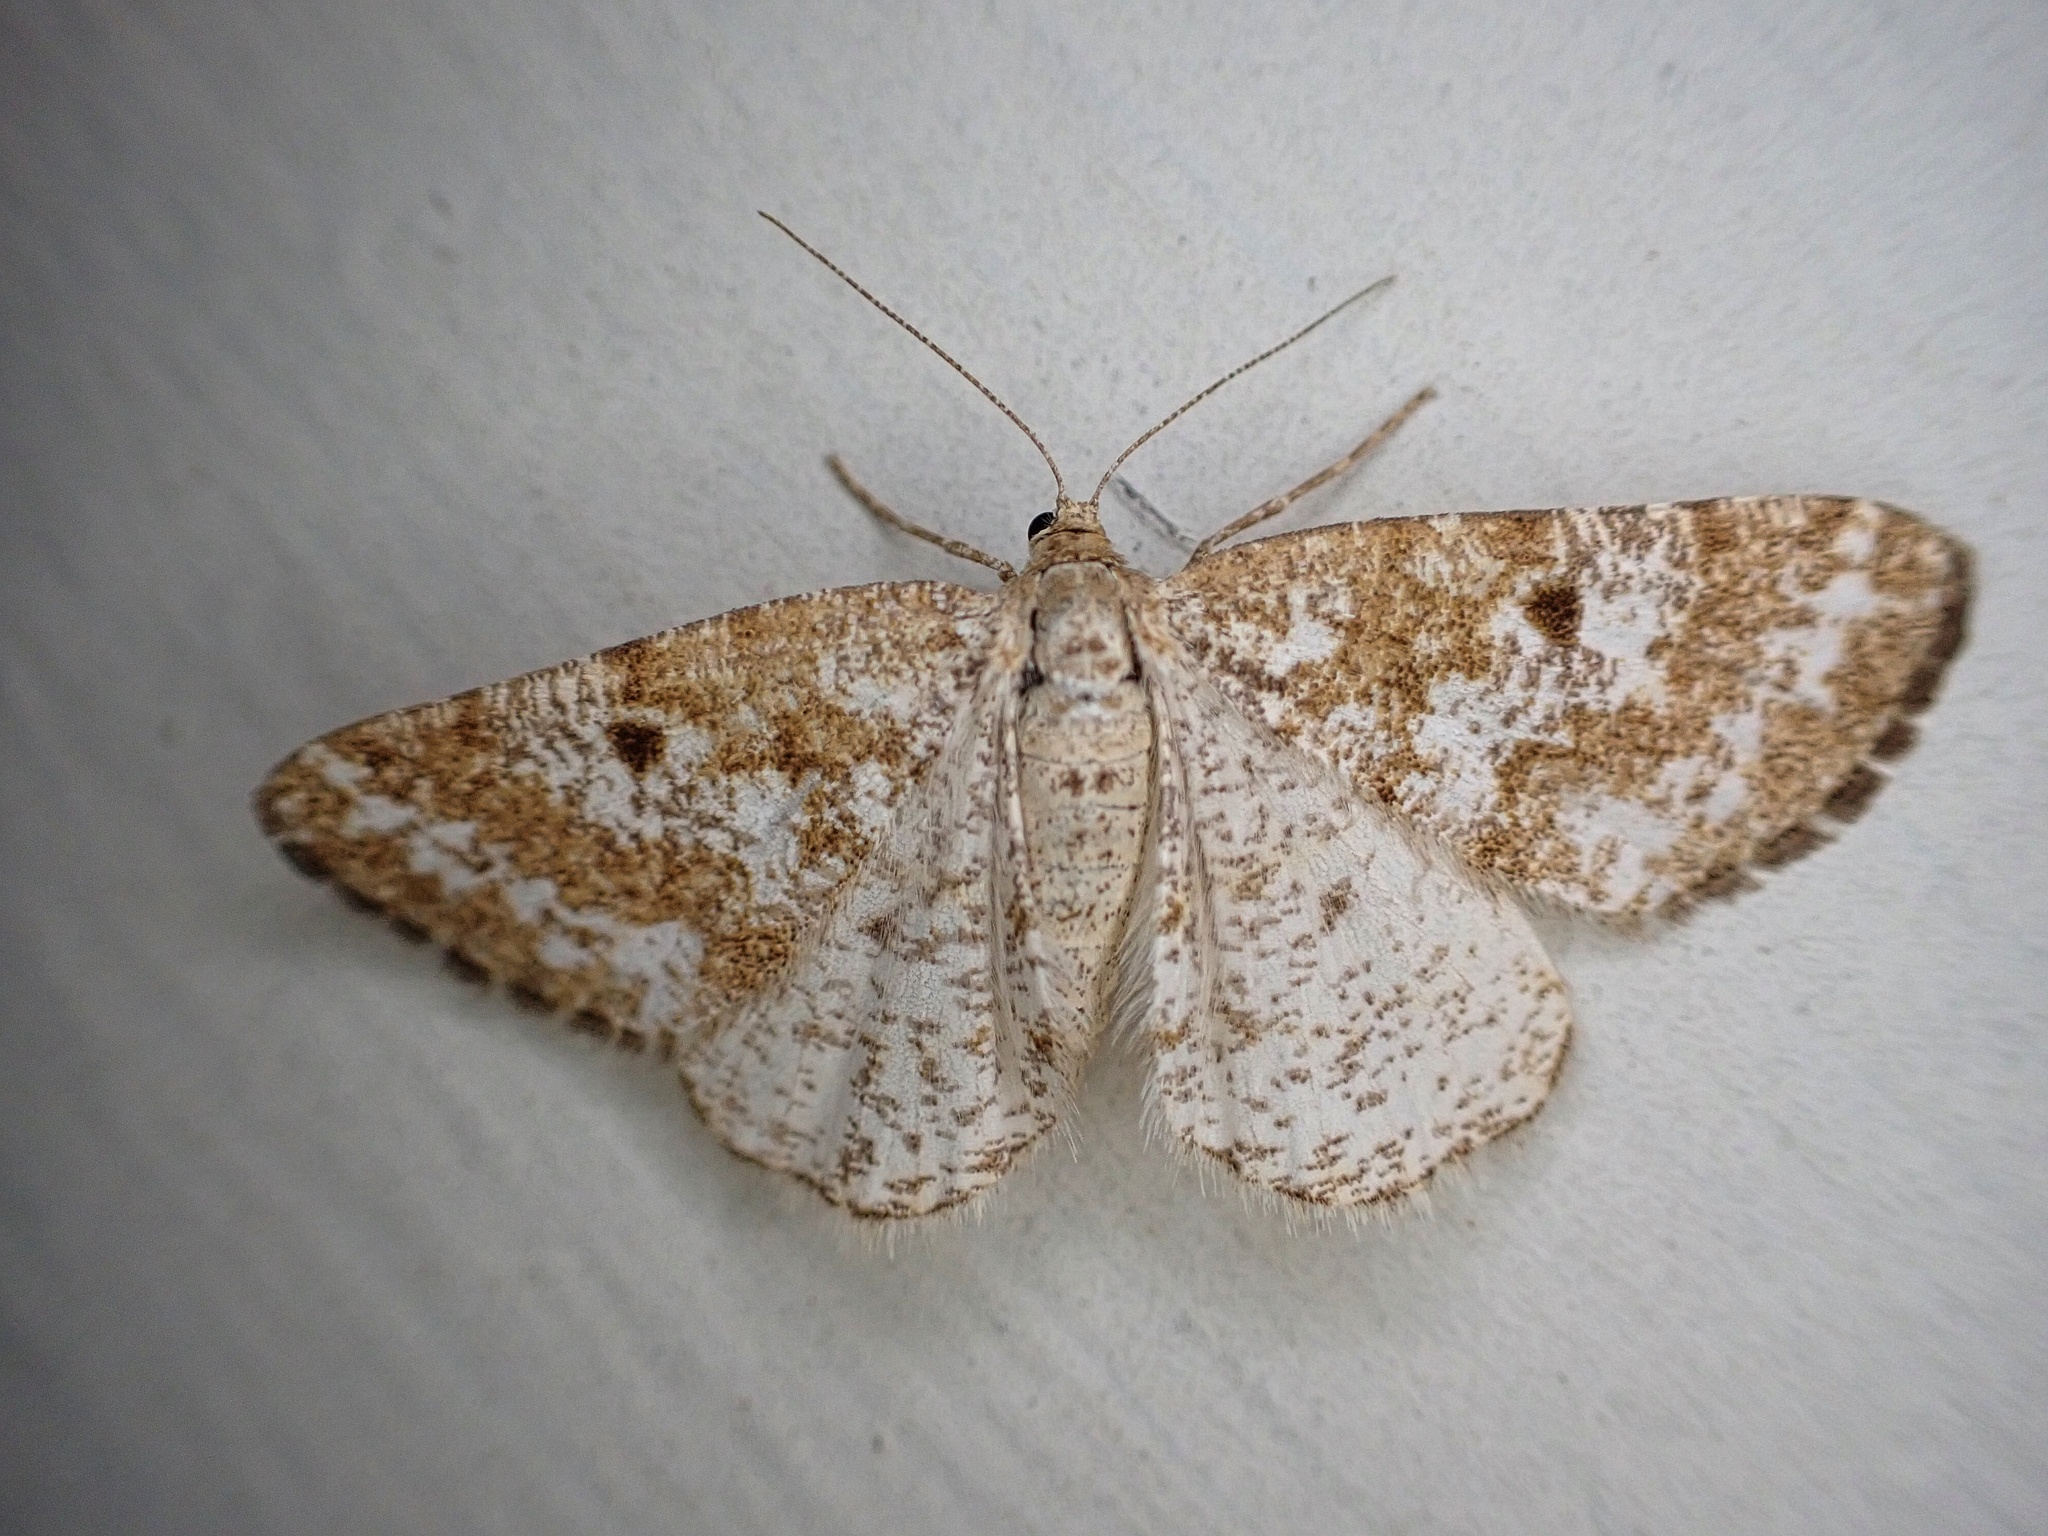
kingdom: Animalia
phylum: Arthropoda
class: Insecta
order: Lepidoptera
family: Geometridae
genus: Eufidonia
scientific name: Eufidonia notataria
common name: Powder moth
